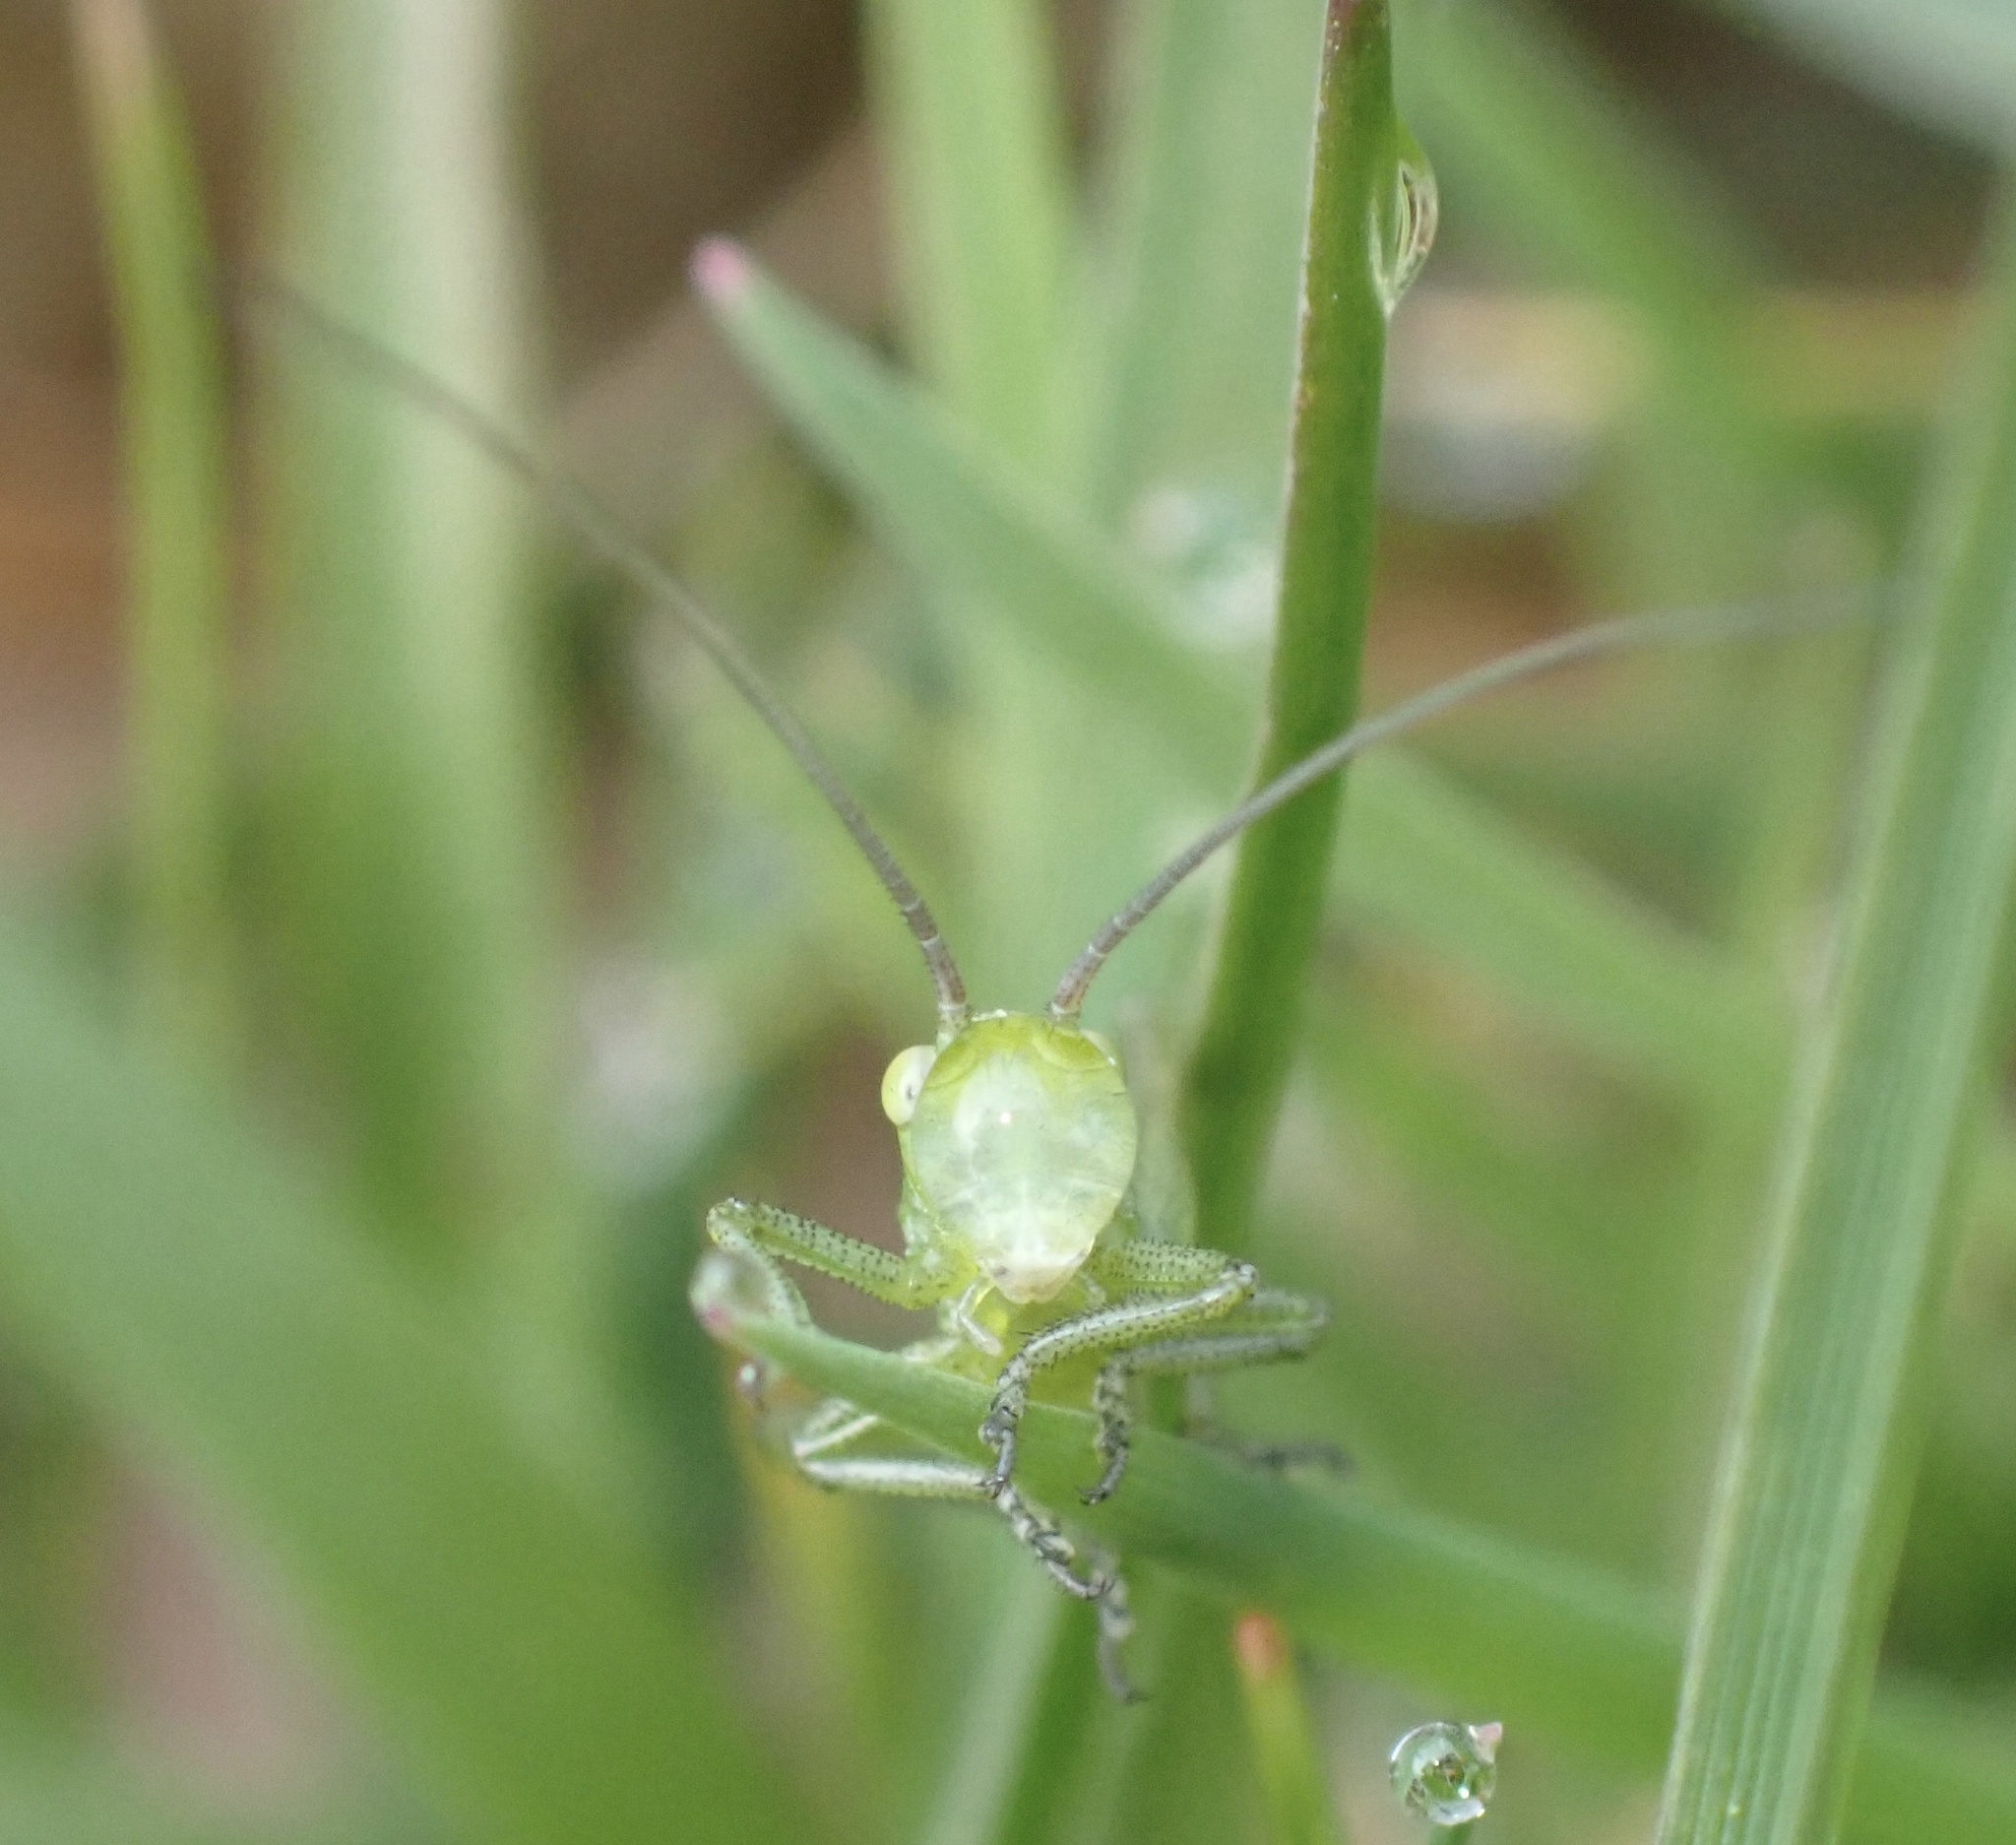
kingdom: Animalia
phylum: Arthropoda
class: Insecta
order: Orthoptera
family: Tettigoniidae
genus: Tettigonia
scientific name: Tettigonia viridissima
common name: Great green bush-cricket
